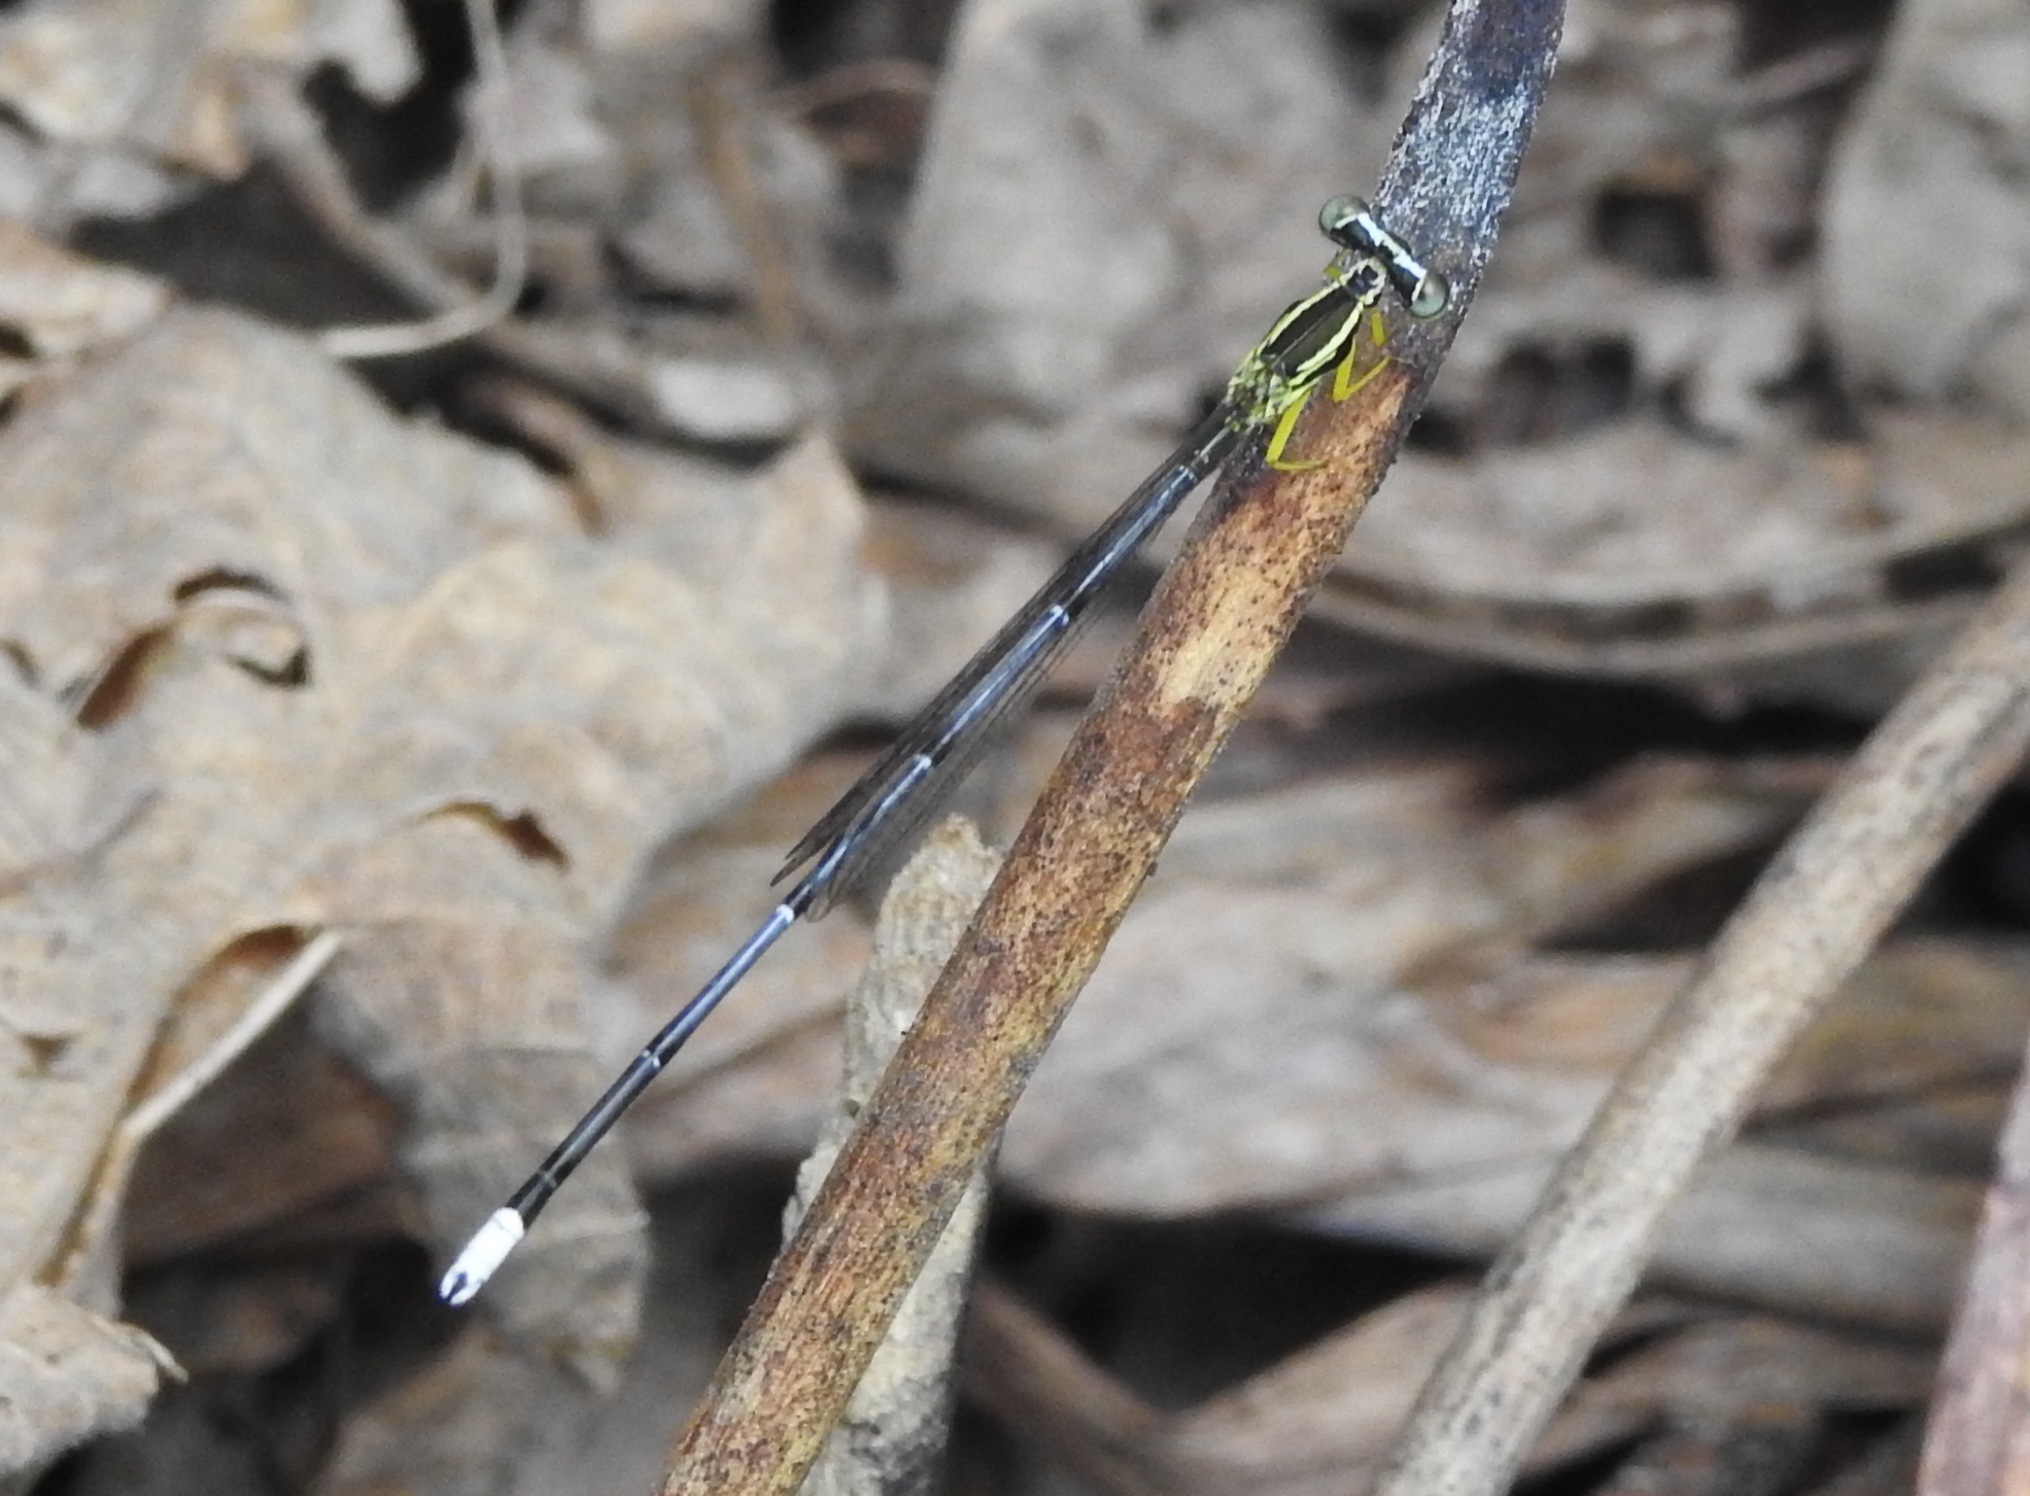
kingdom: Animalia
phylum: Arthropoda
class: Insecta
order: Odonata
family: Platycnemididae
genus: Copera
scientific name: Copera marginipes
